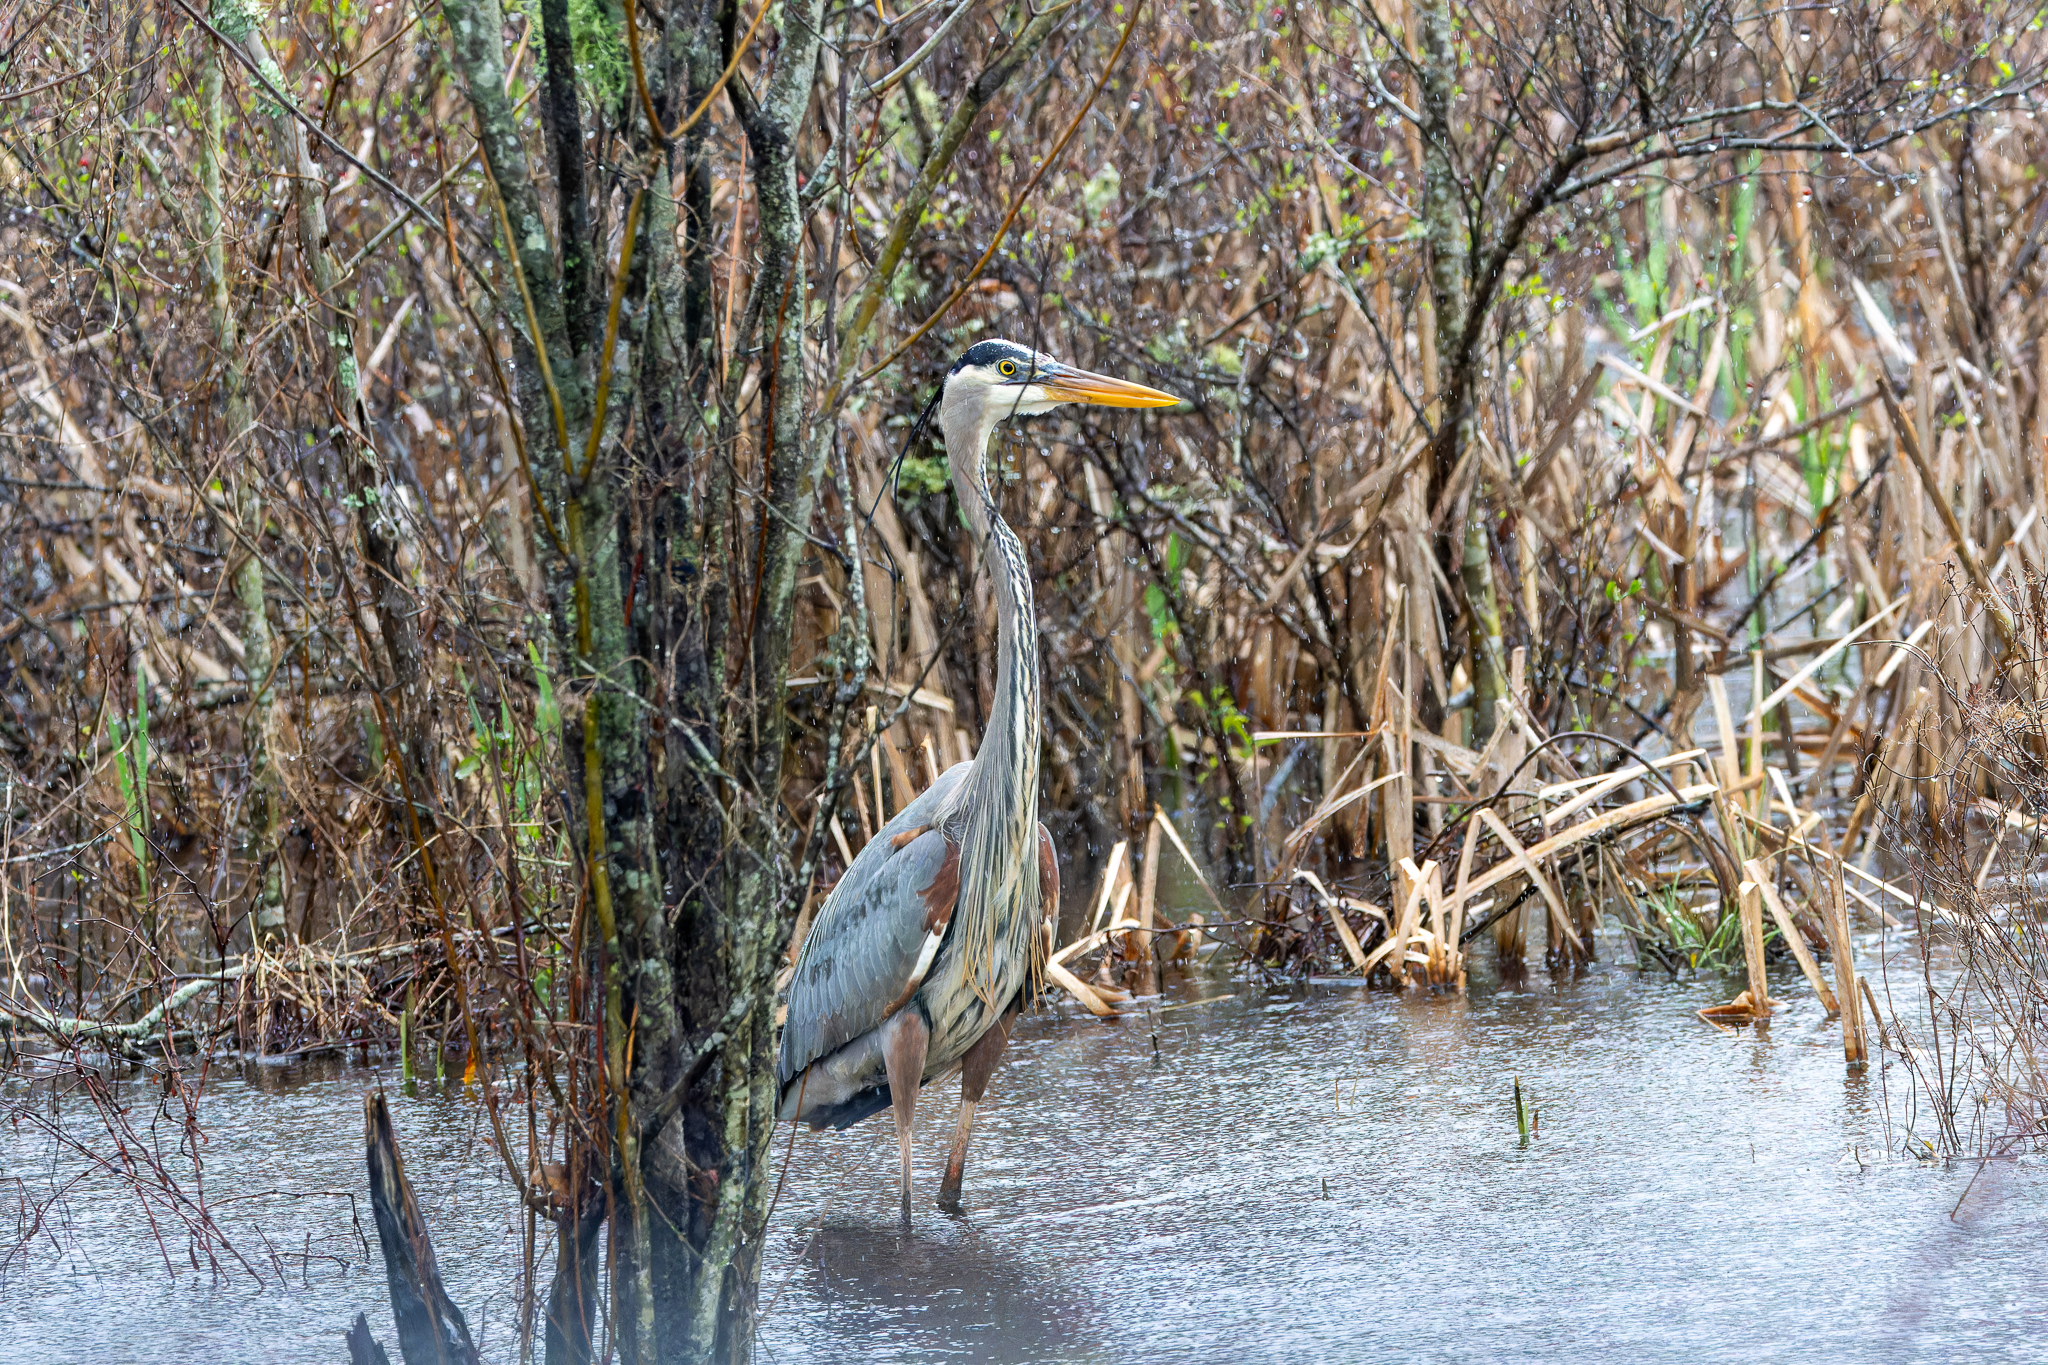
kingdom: Animalia
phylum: Chordata
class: Aves
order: Pelecaniformes
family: Ardeidae
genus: Ardea
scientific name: Ardea herodias
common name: Great blue heron
